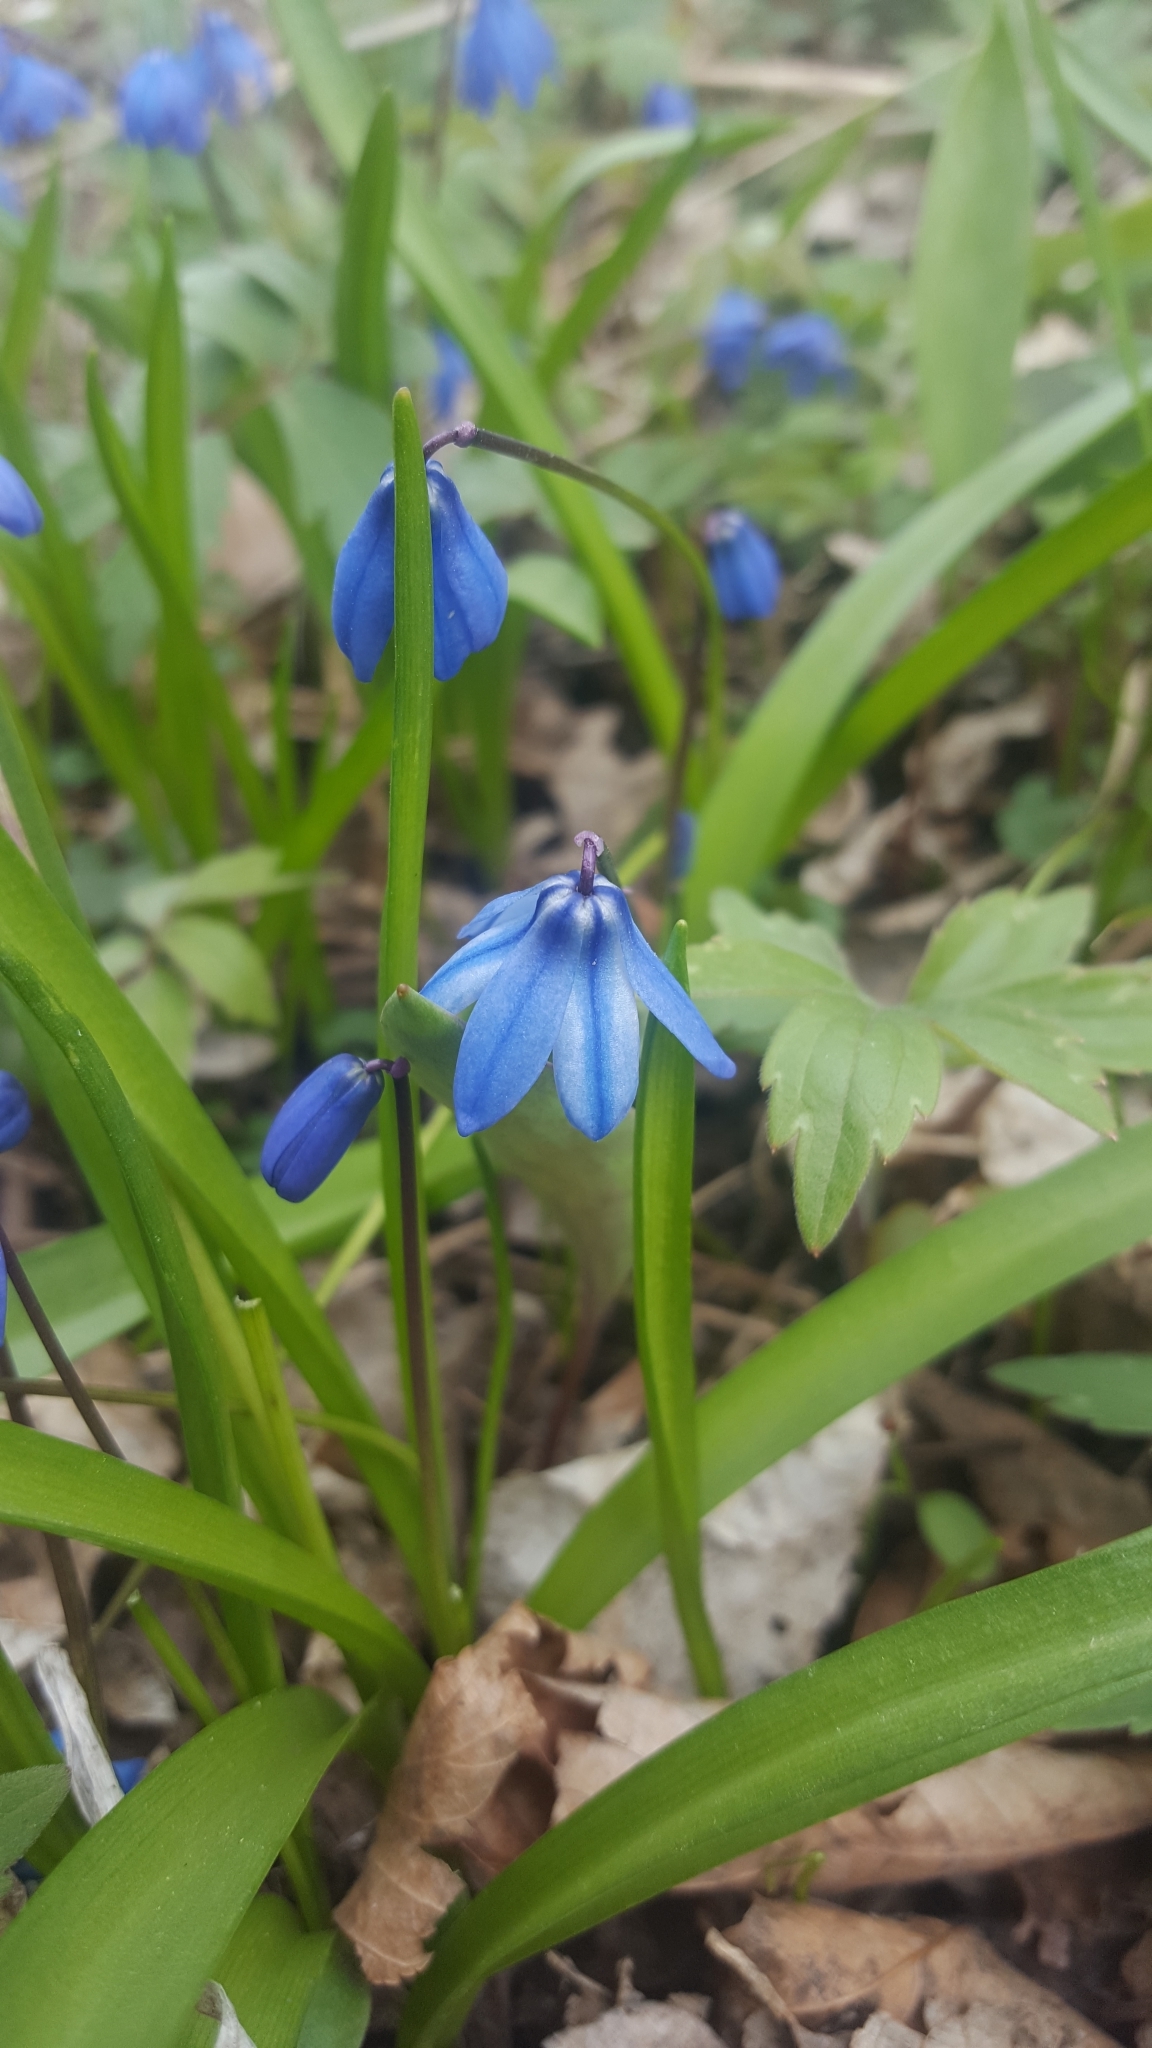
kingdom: Plantae
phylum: Tracheophyta
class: Liliopsida
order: Asparagales
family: Asparagaceae
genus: Scilla
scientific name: Scilla siberica
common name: Siberian squill
